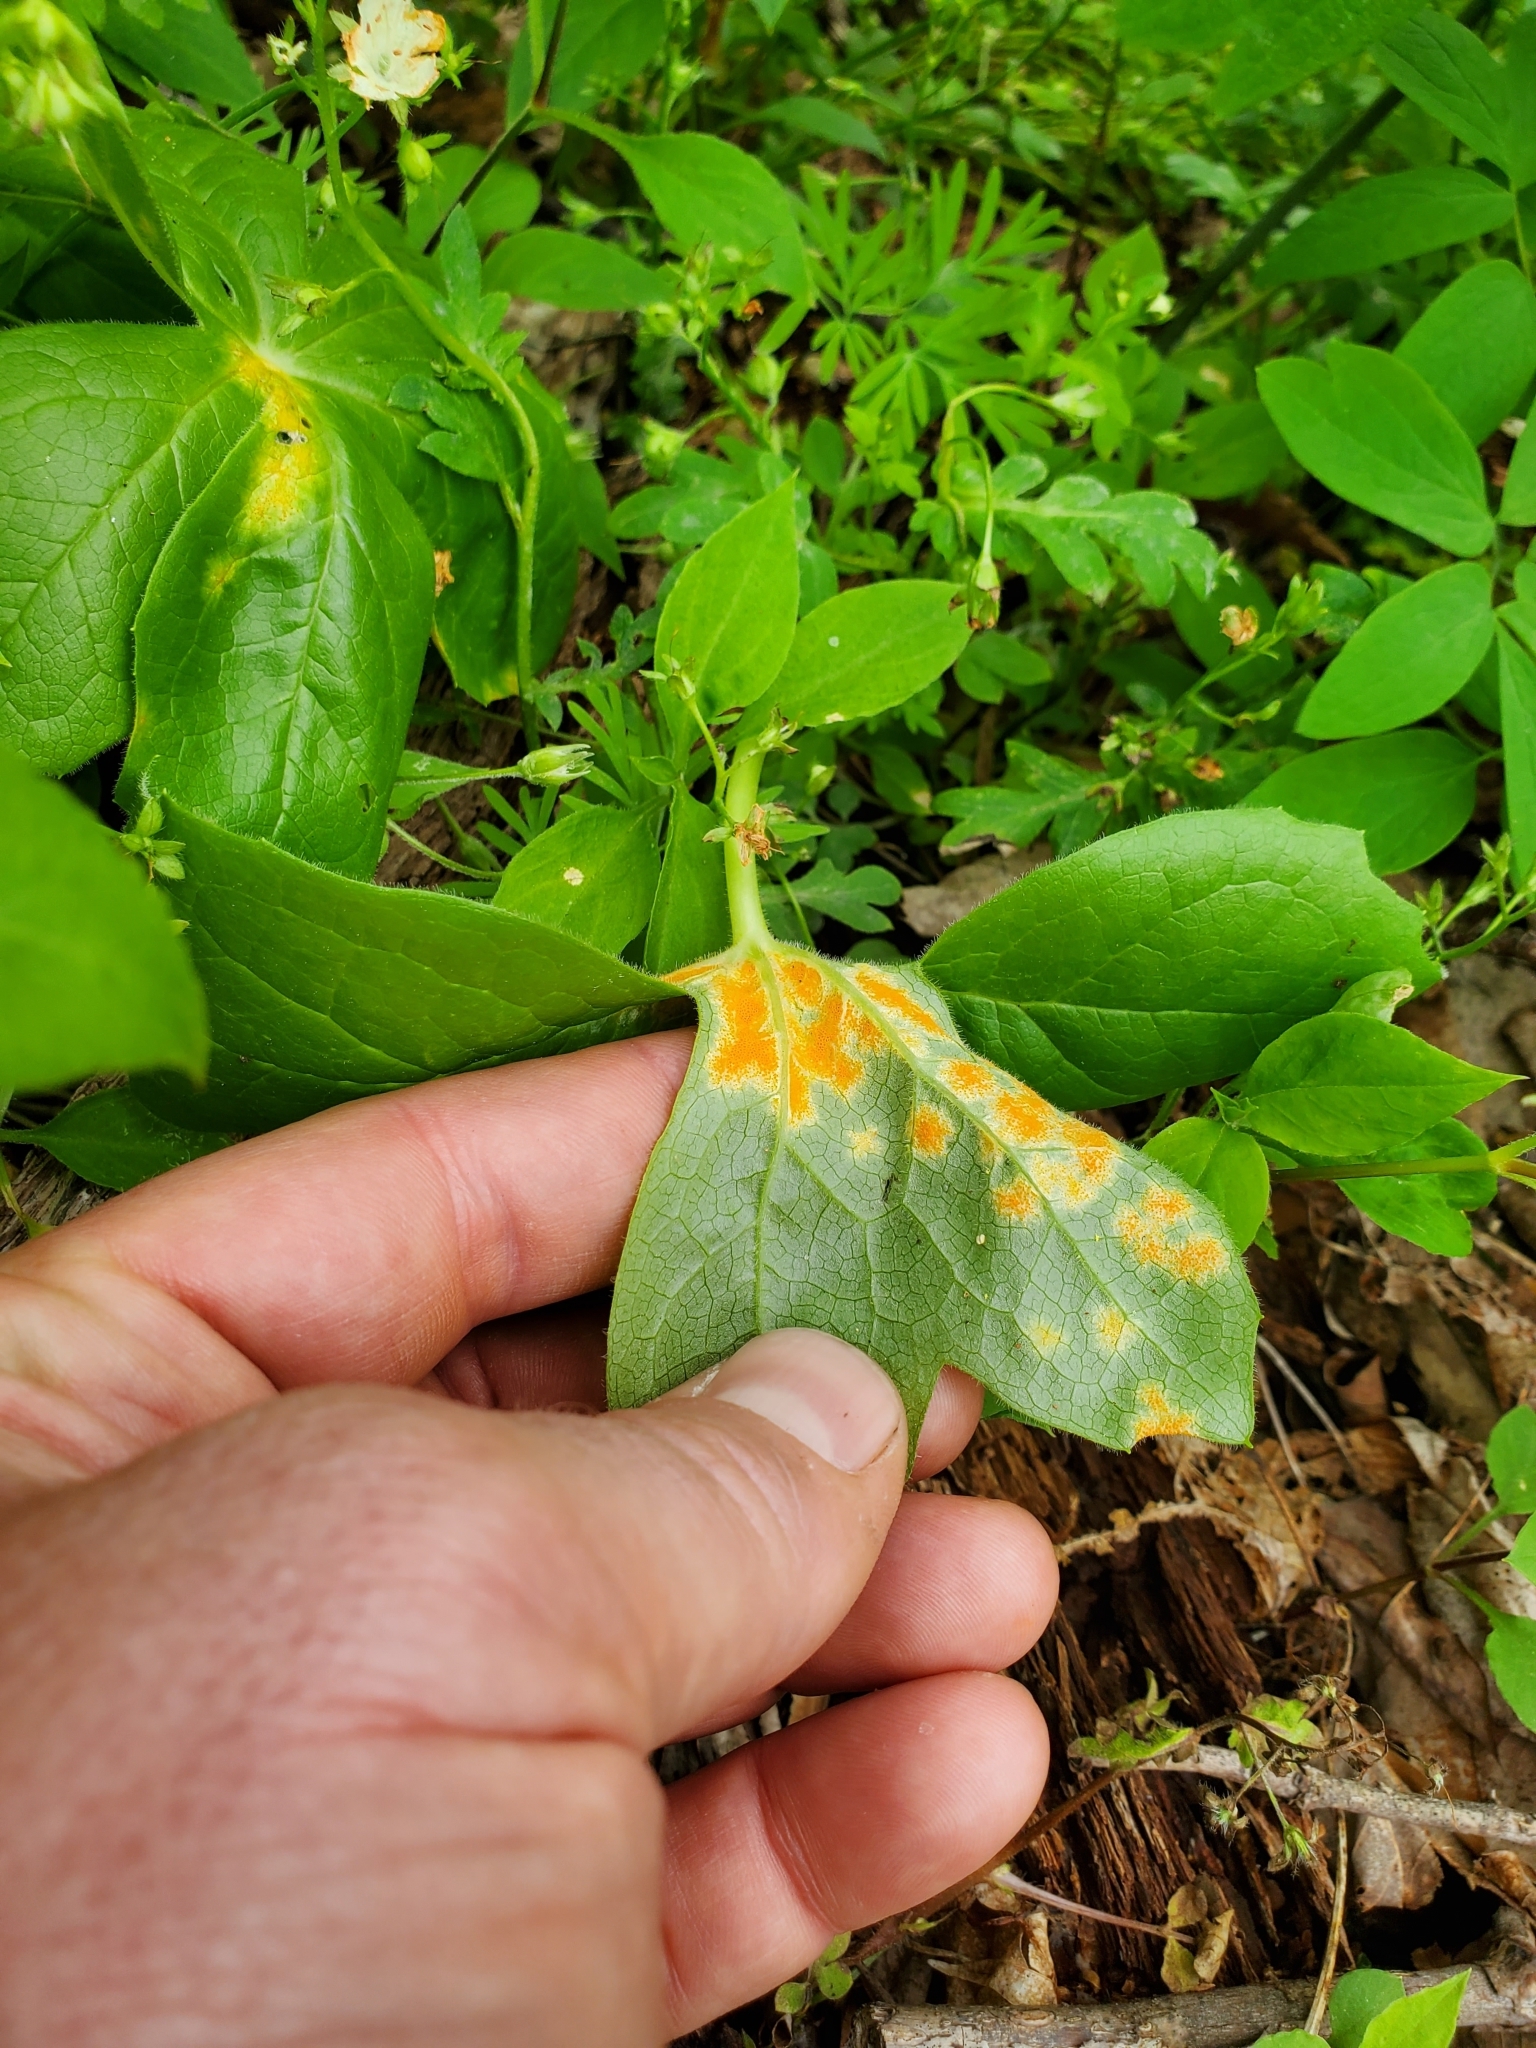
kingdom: Fungi
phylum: Basidiomycota
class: Pucciniomycetes
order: Pucciniales
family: Pucciniaceae
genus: Puccinia
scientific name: Puccinia podophylli
